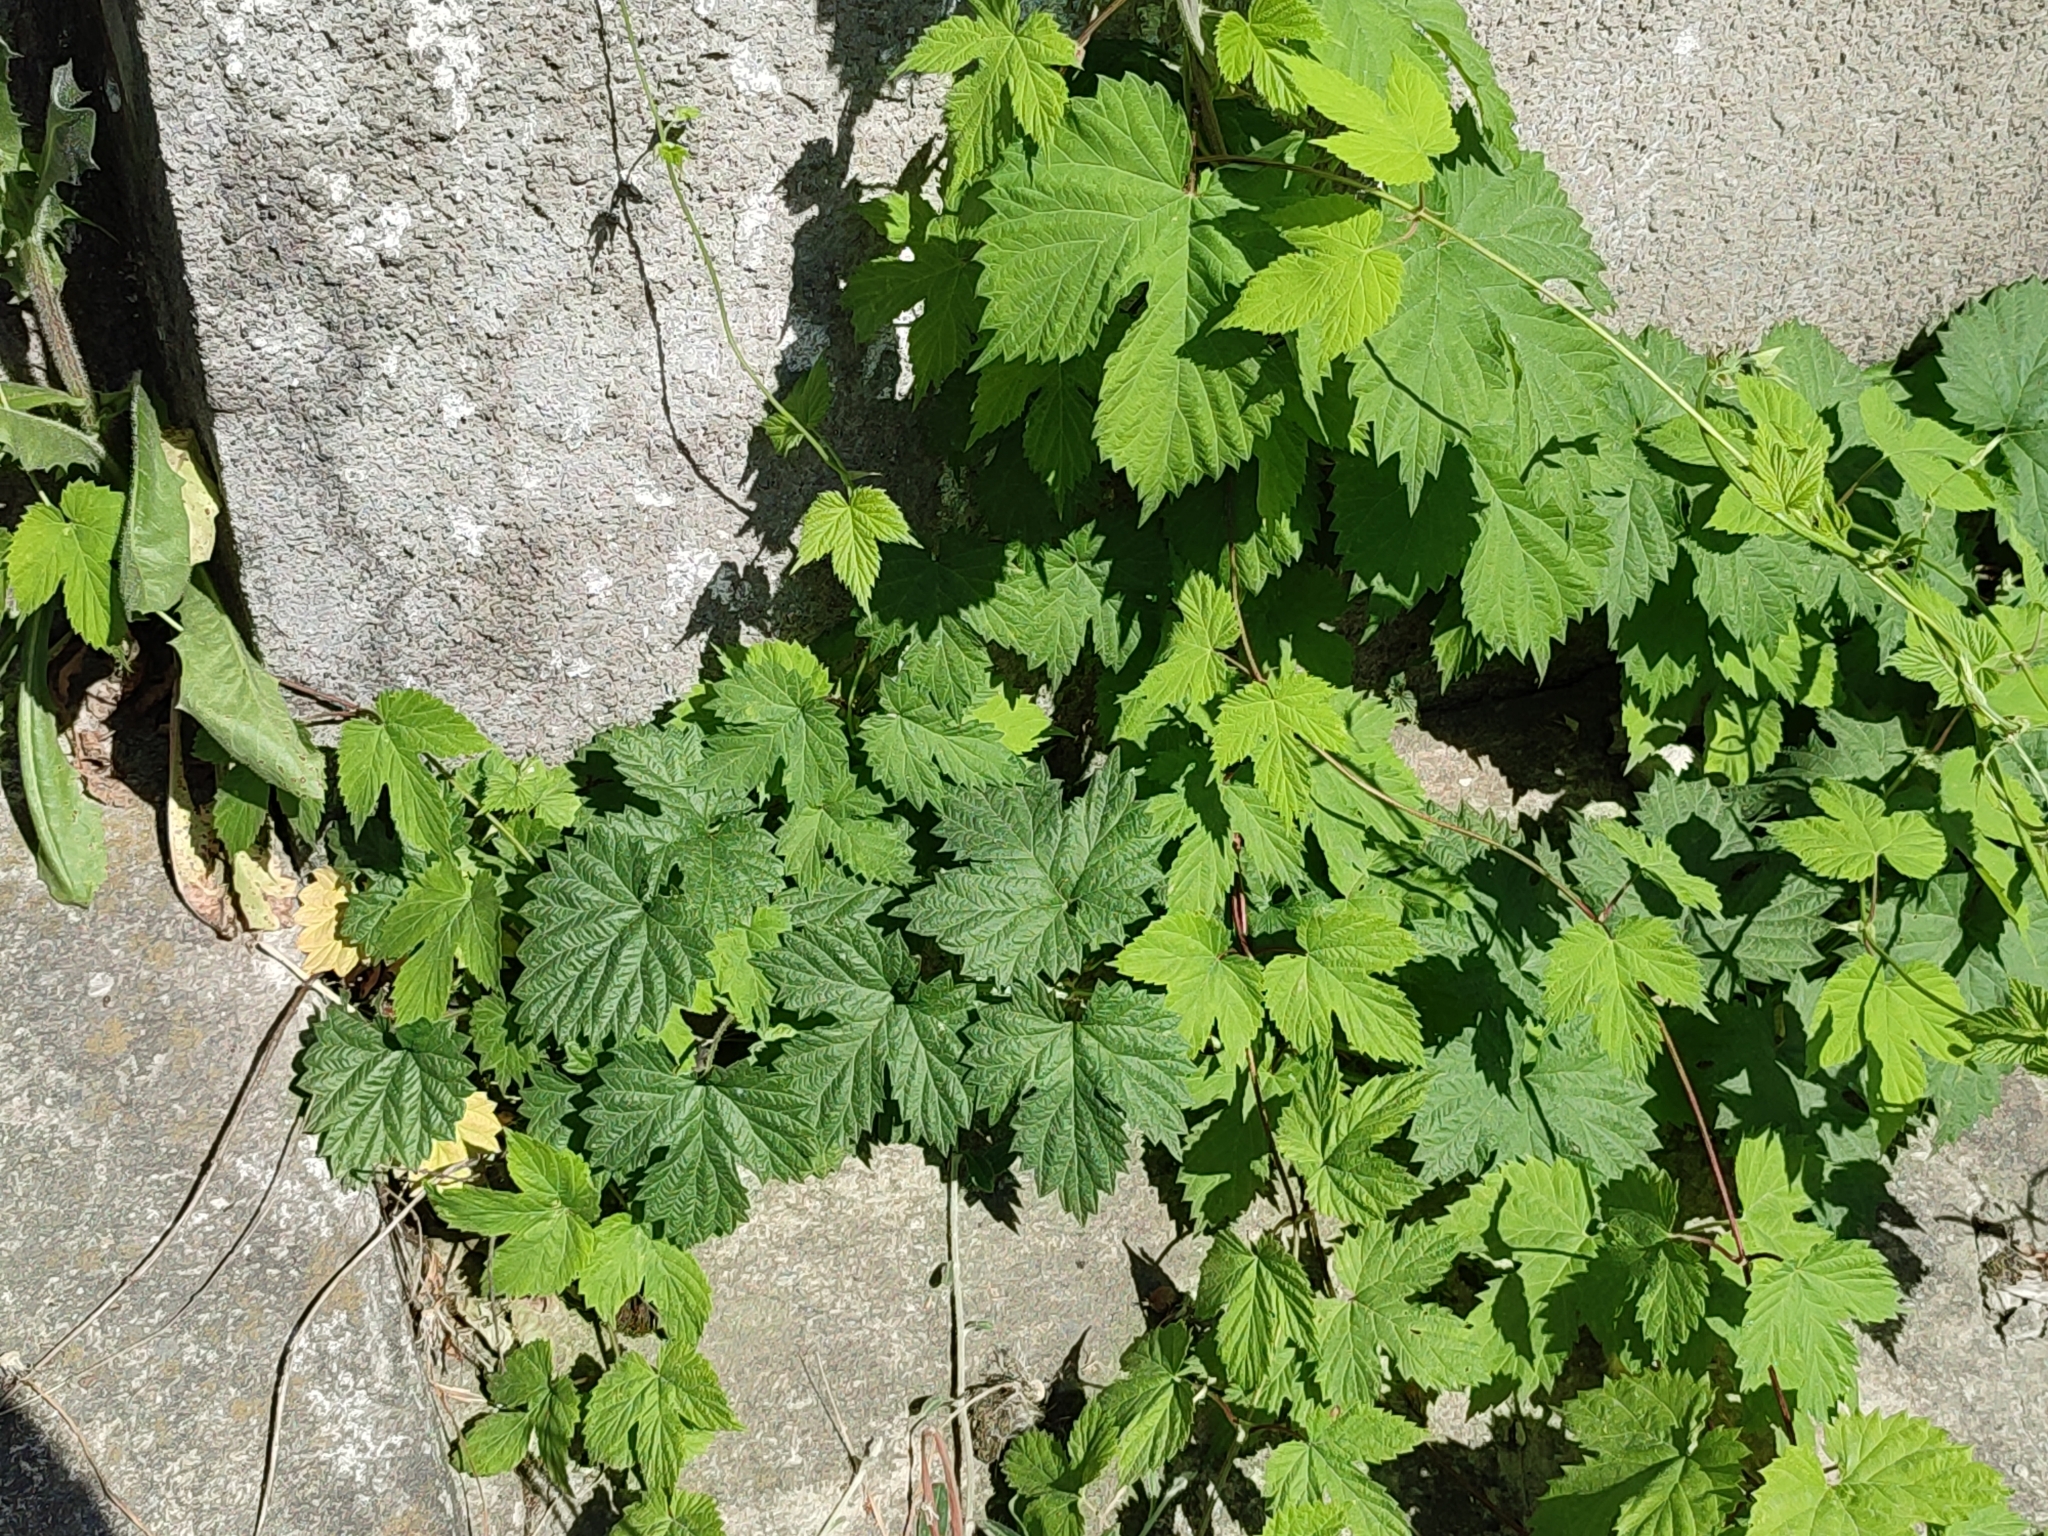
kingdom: Plantae
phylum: Tracheophyta
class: Magnoliopsida
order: Rosales
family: Cannabaceae
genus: Humulus
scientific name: Humulus lupulus
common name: Hop
